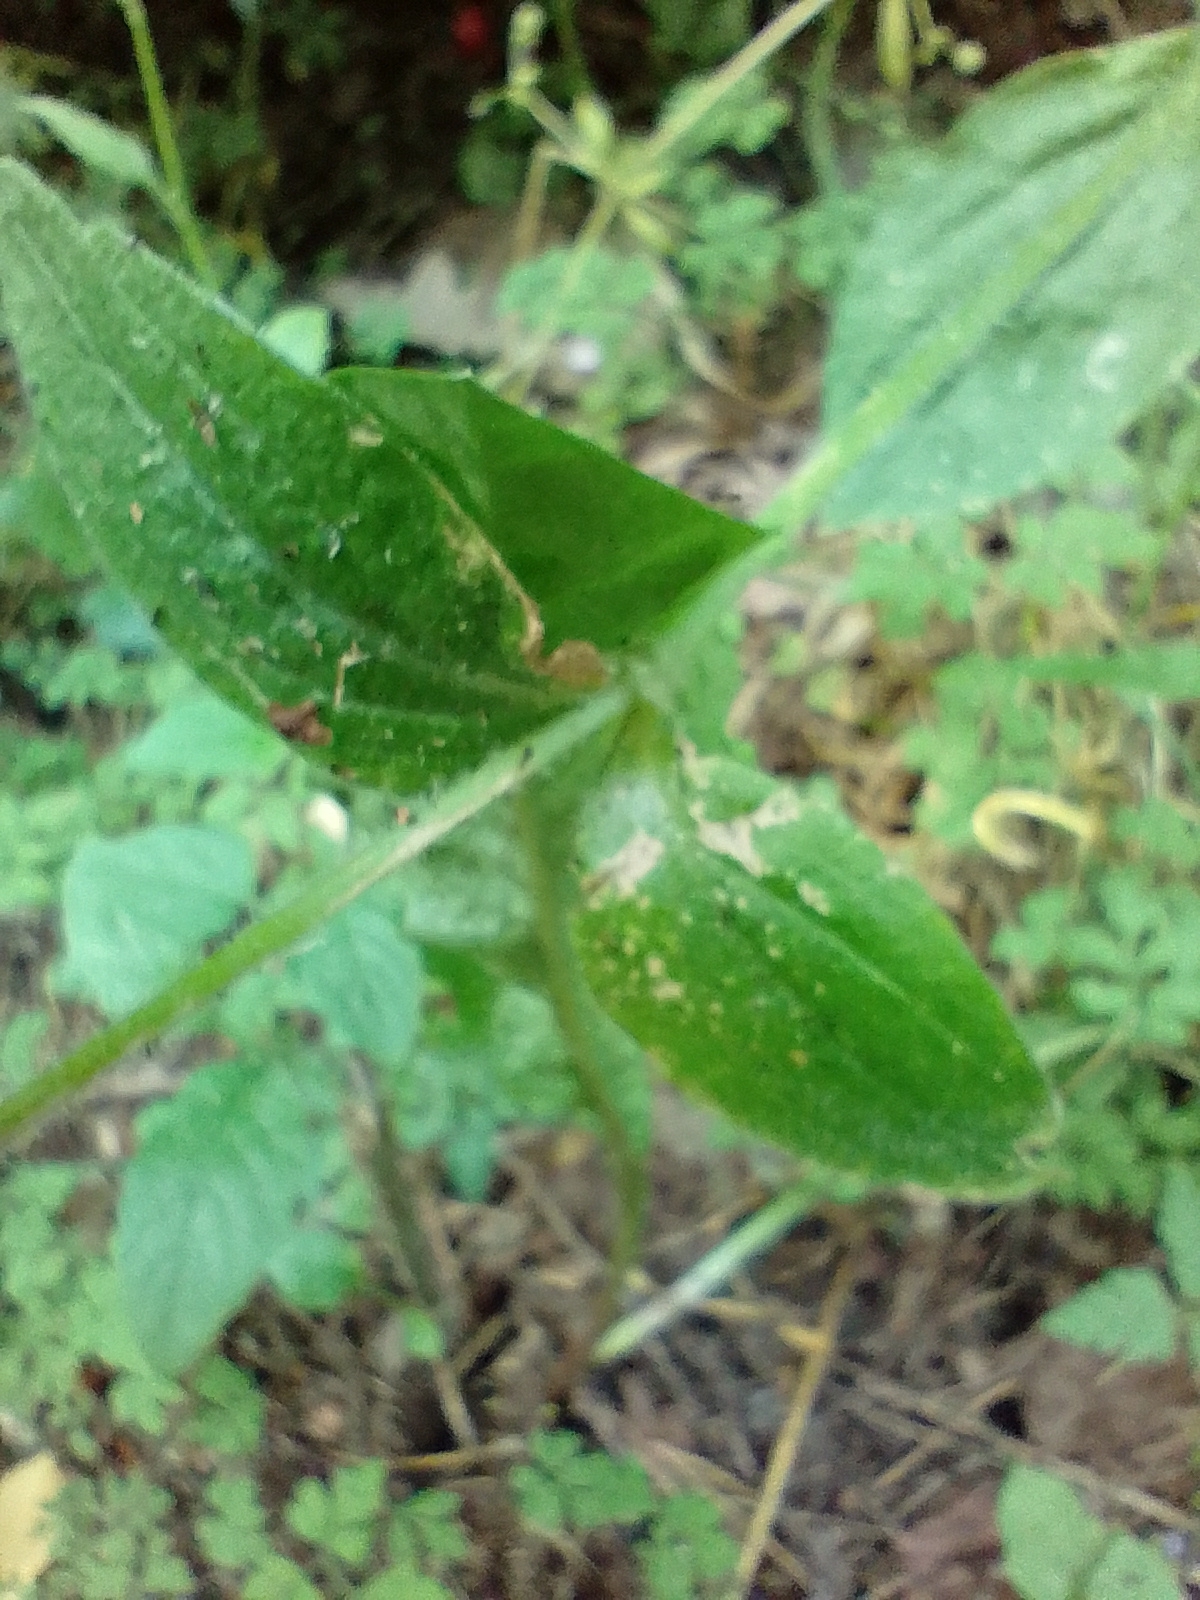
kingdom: Plantae
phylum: Tracheophyta
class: Magnoliopsida
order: Caryophyllales
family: Caryophyllaceae
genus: Silene
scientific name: Silene dioica
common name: Red campion
